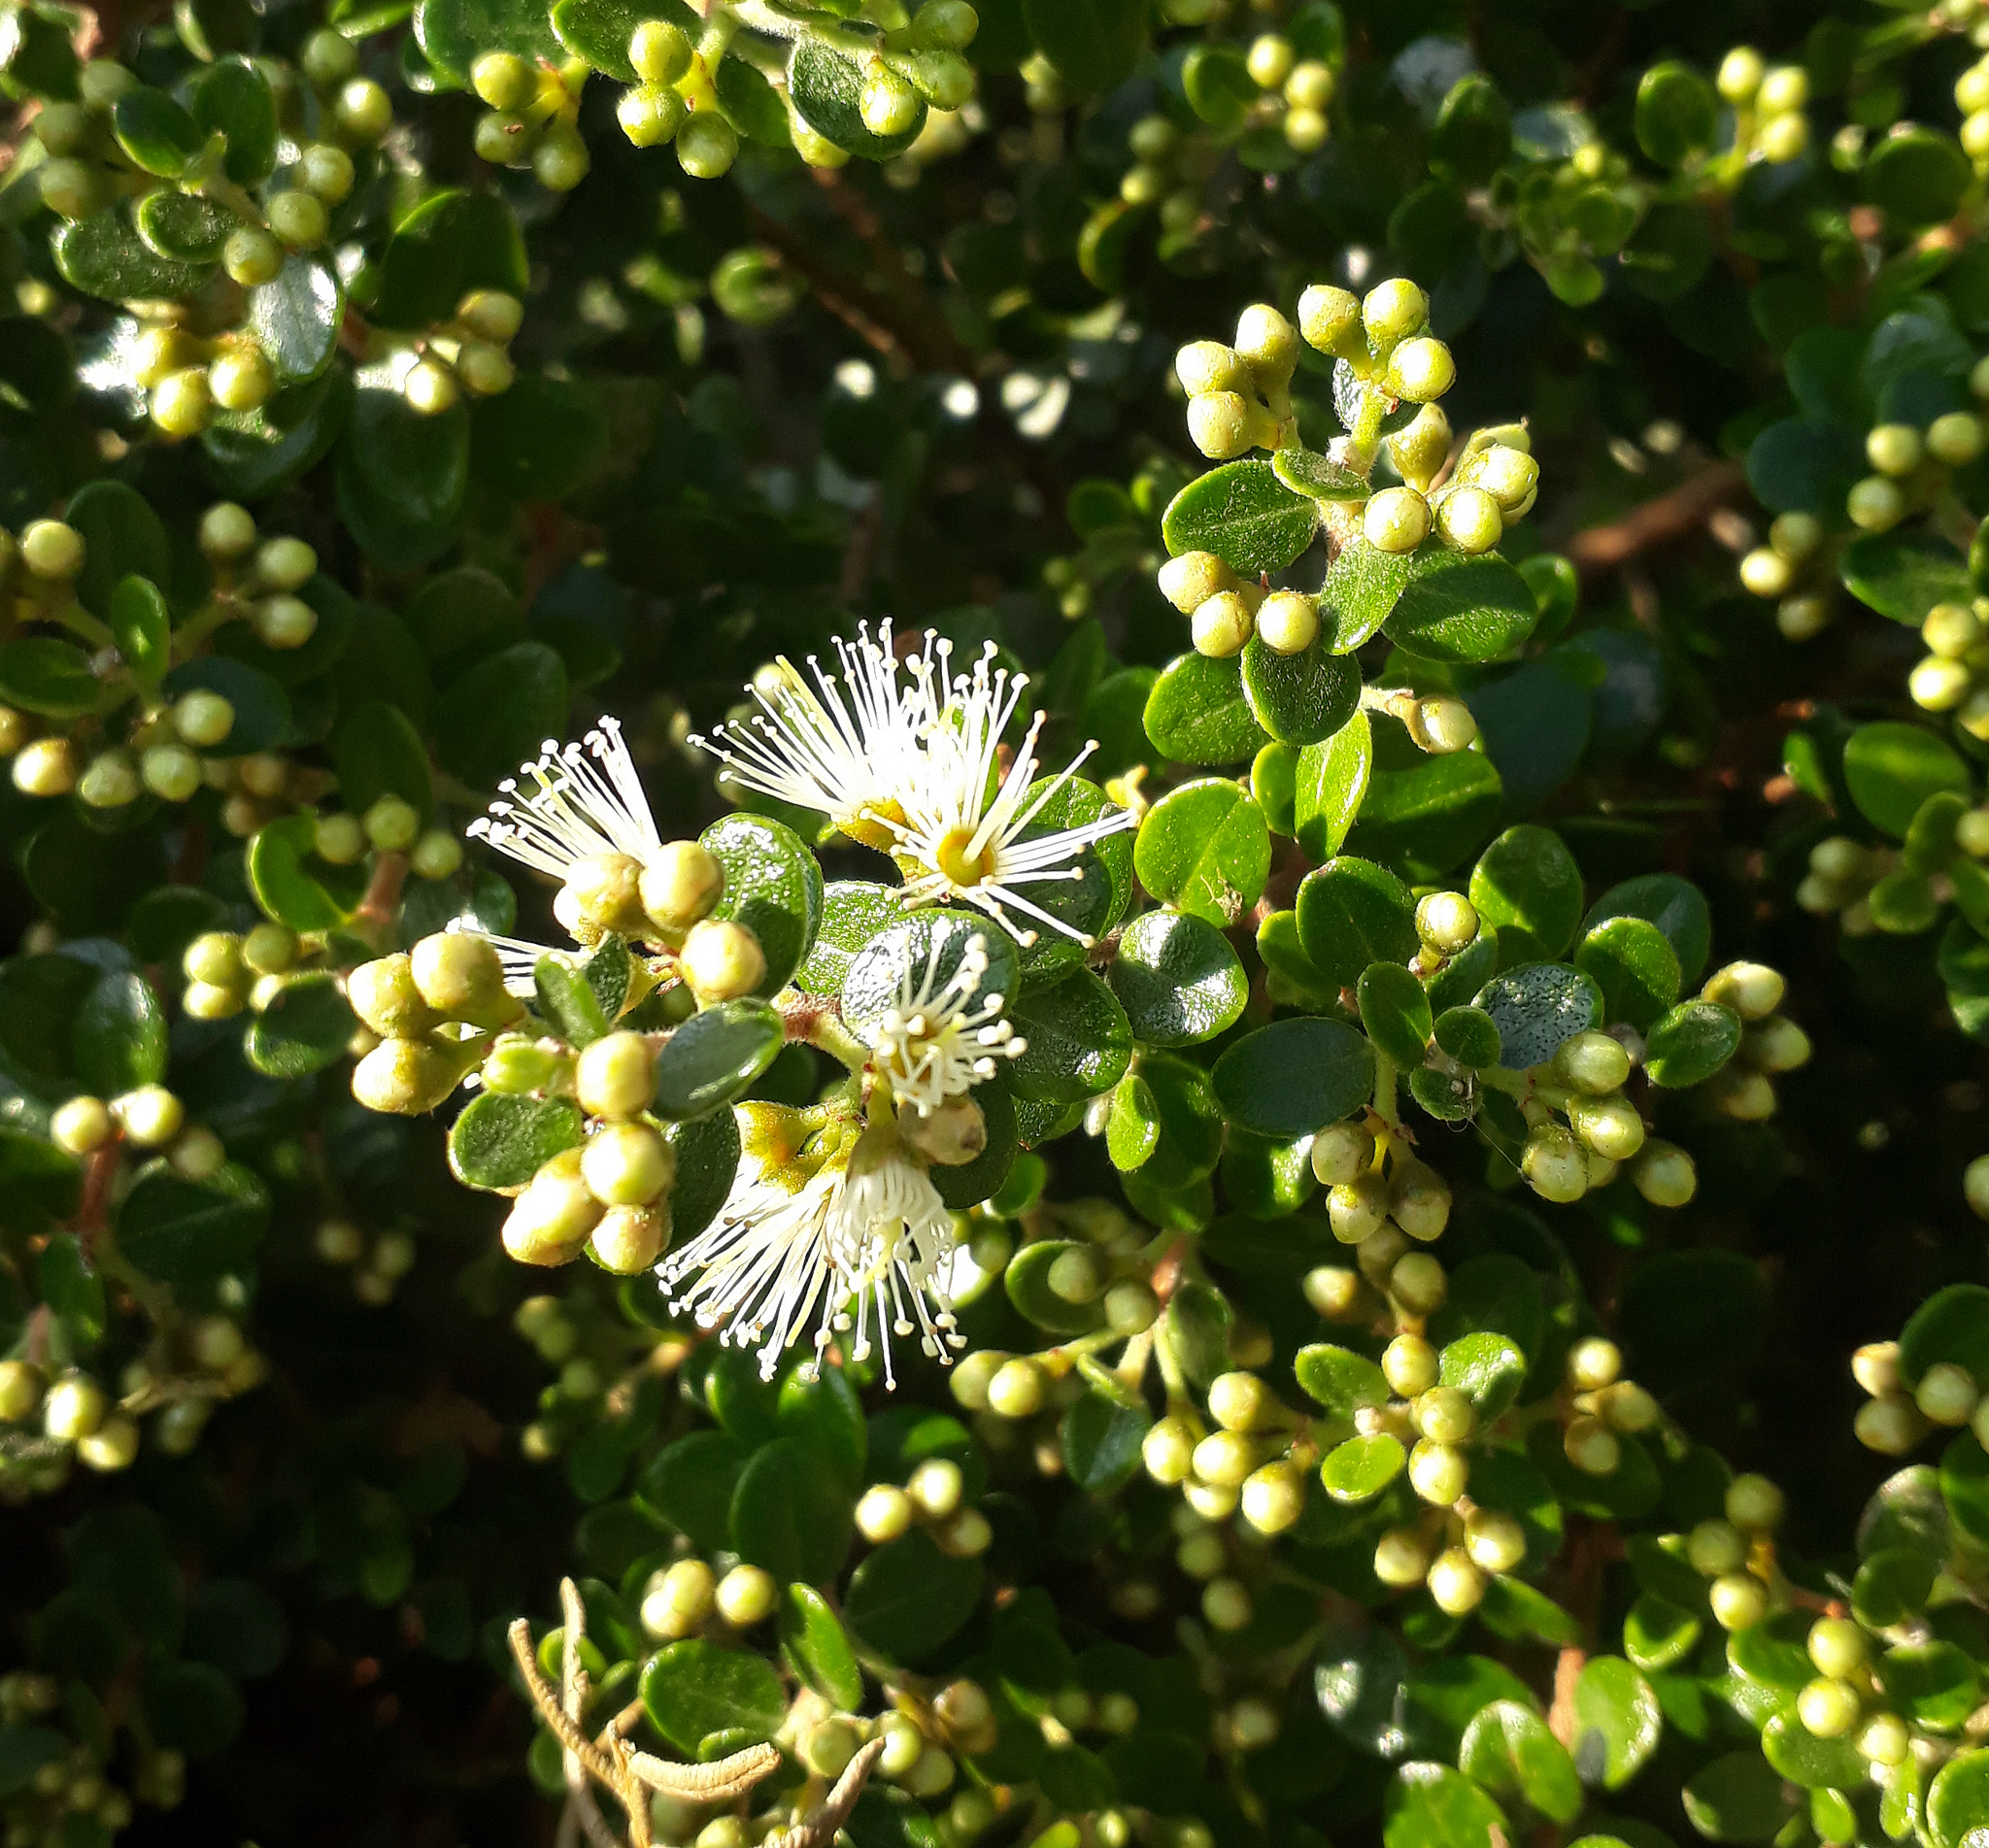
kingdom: Plantae
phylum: Tracheophyta
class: Magnoliopsida
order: Myrtales
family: Myrtaceae
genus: Metrosideros
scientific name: Metrosideros perforata
